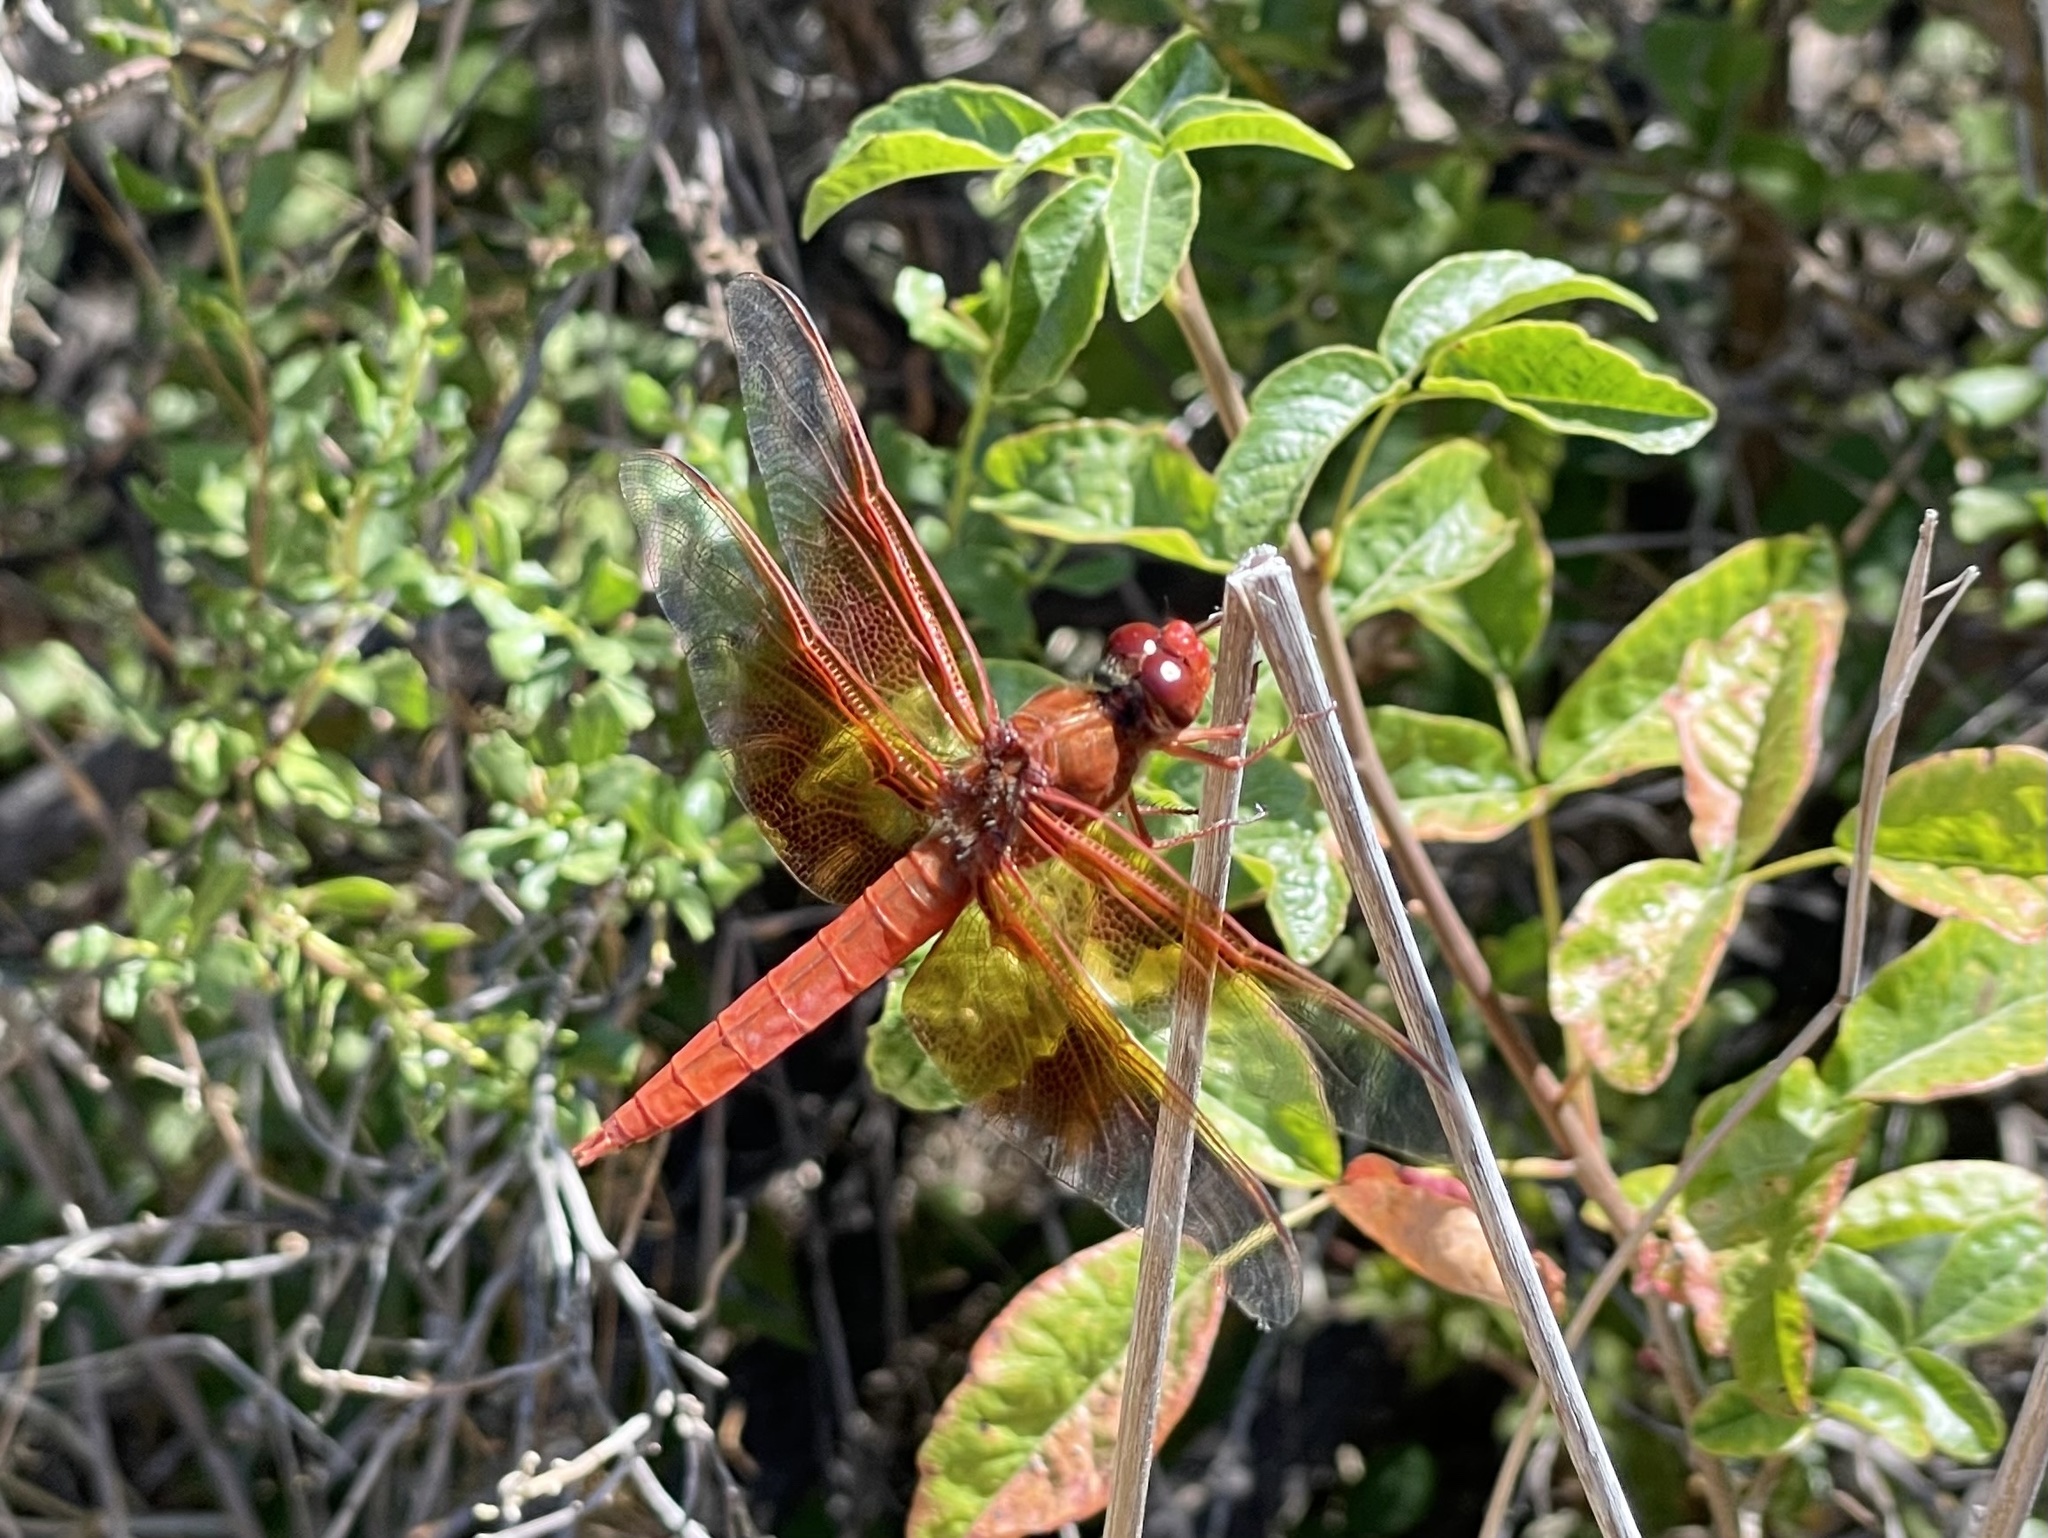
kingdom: Animalia
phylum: Arthropoda
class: Insecta
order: Odonata
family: Libellulidae
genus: Libellula
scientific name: Libellula saturata
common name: Flame skimmer
